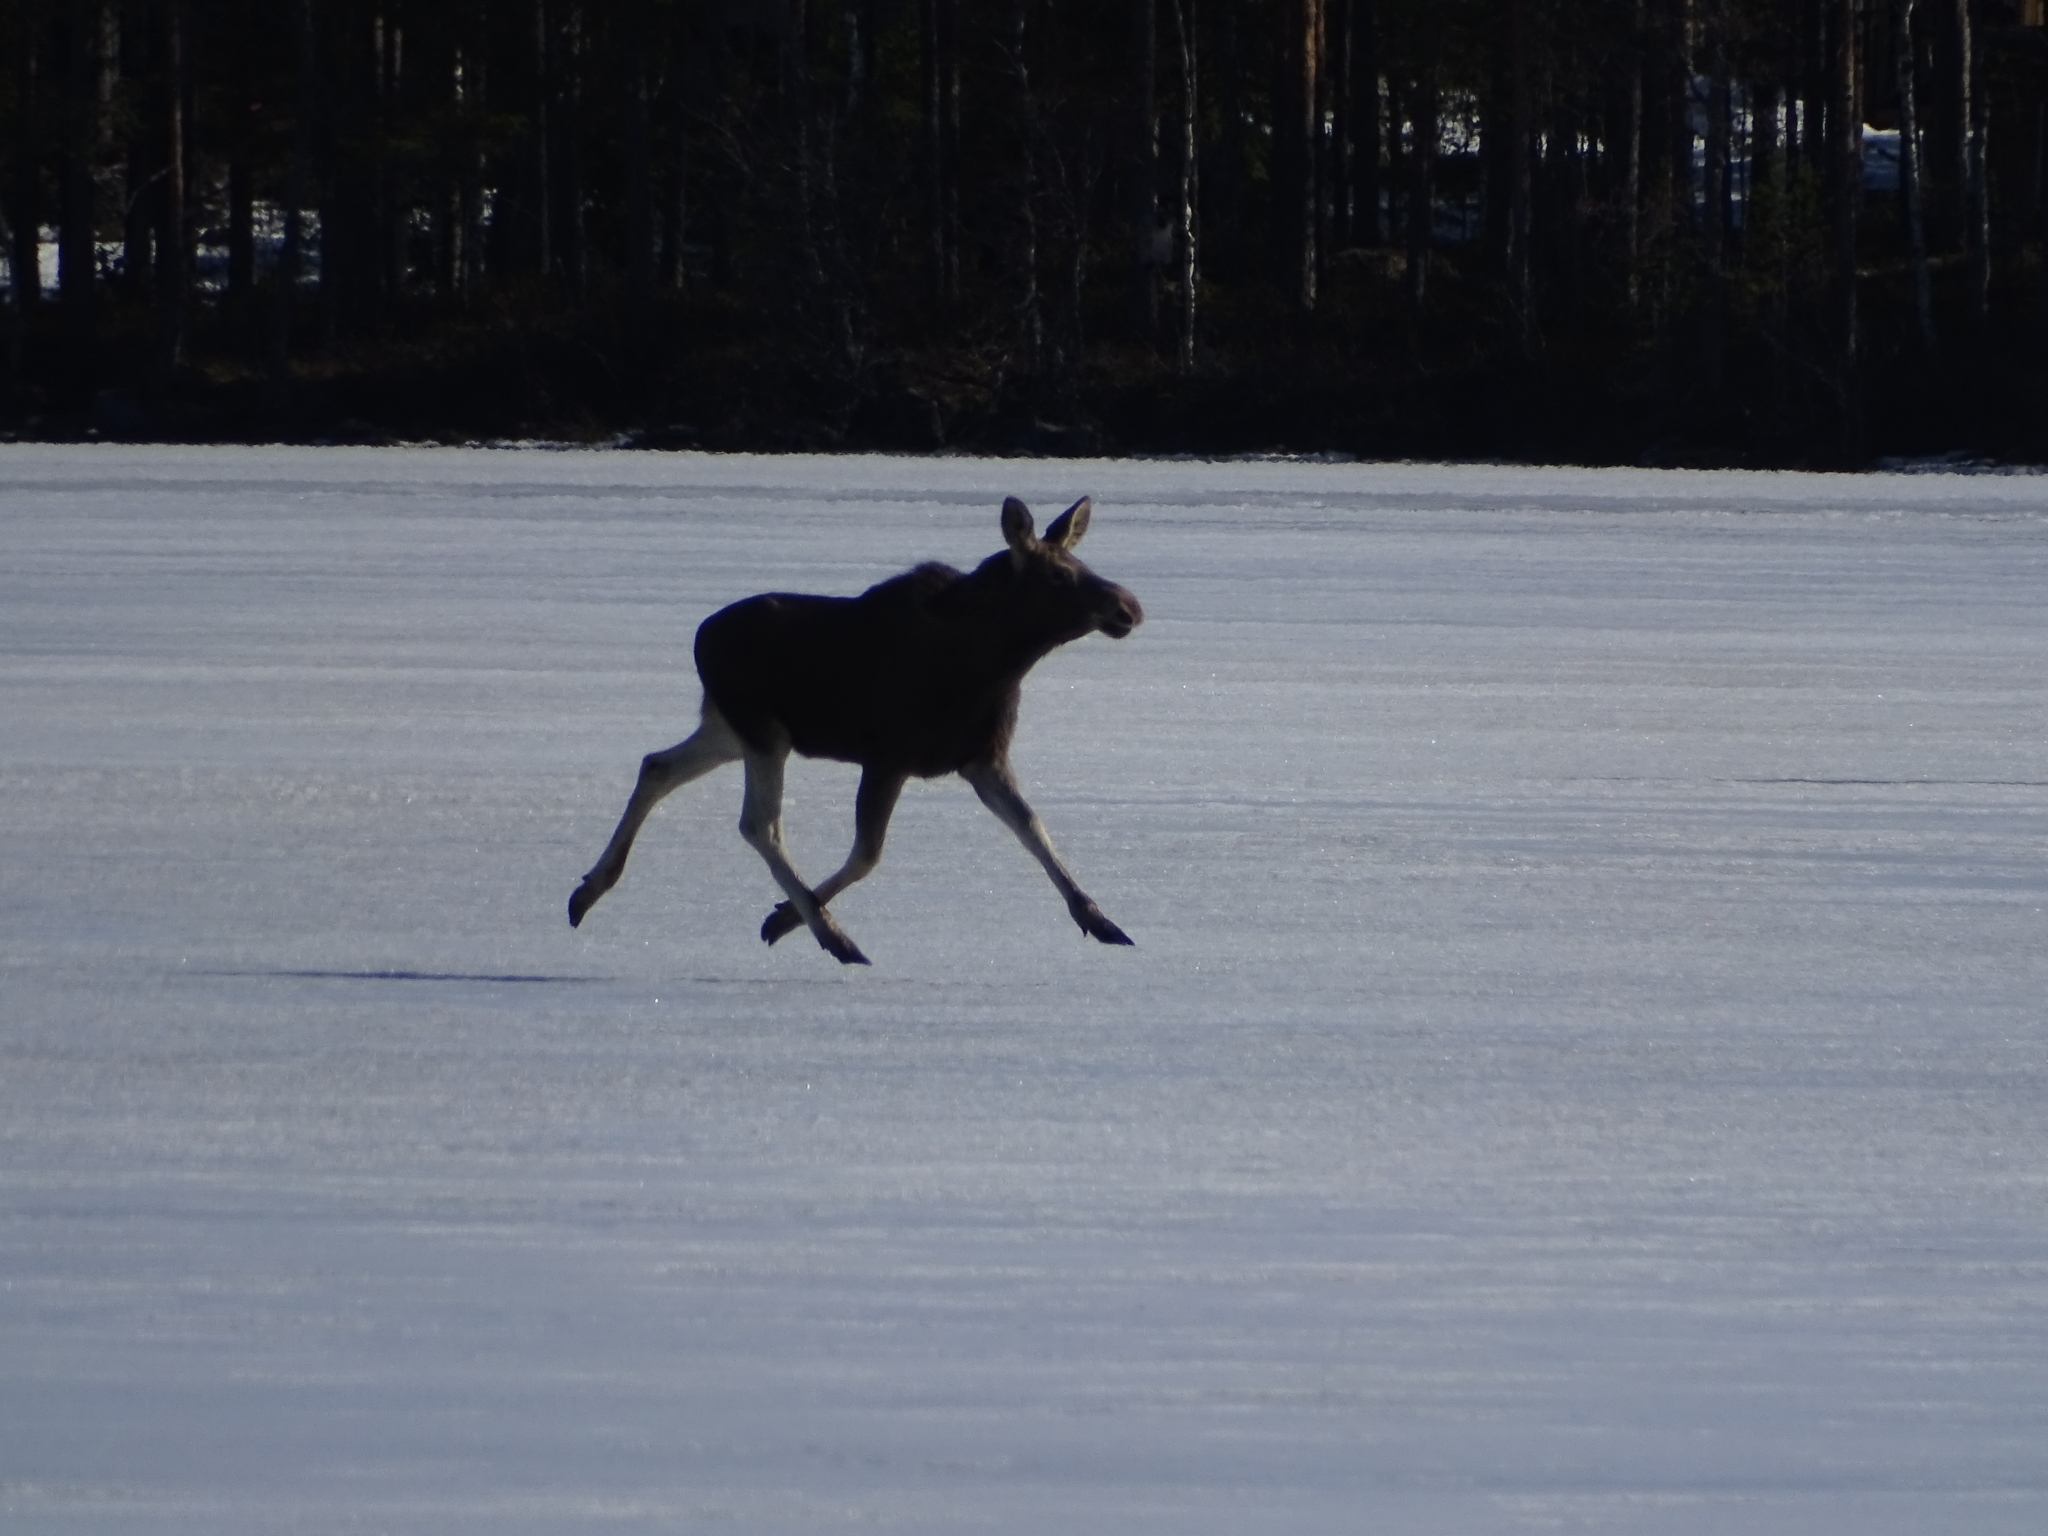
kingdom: Animalia
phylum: Chordata
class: Mammalia
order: Artiodactyla
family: Cervidae
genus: Alces
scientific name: Alces alces
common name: Moose
